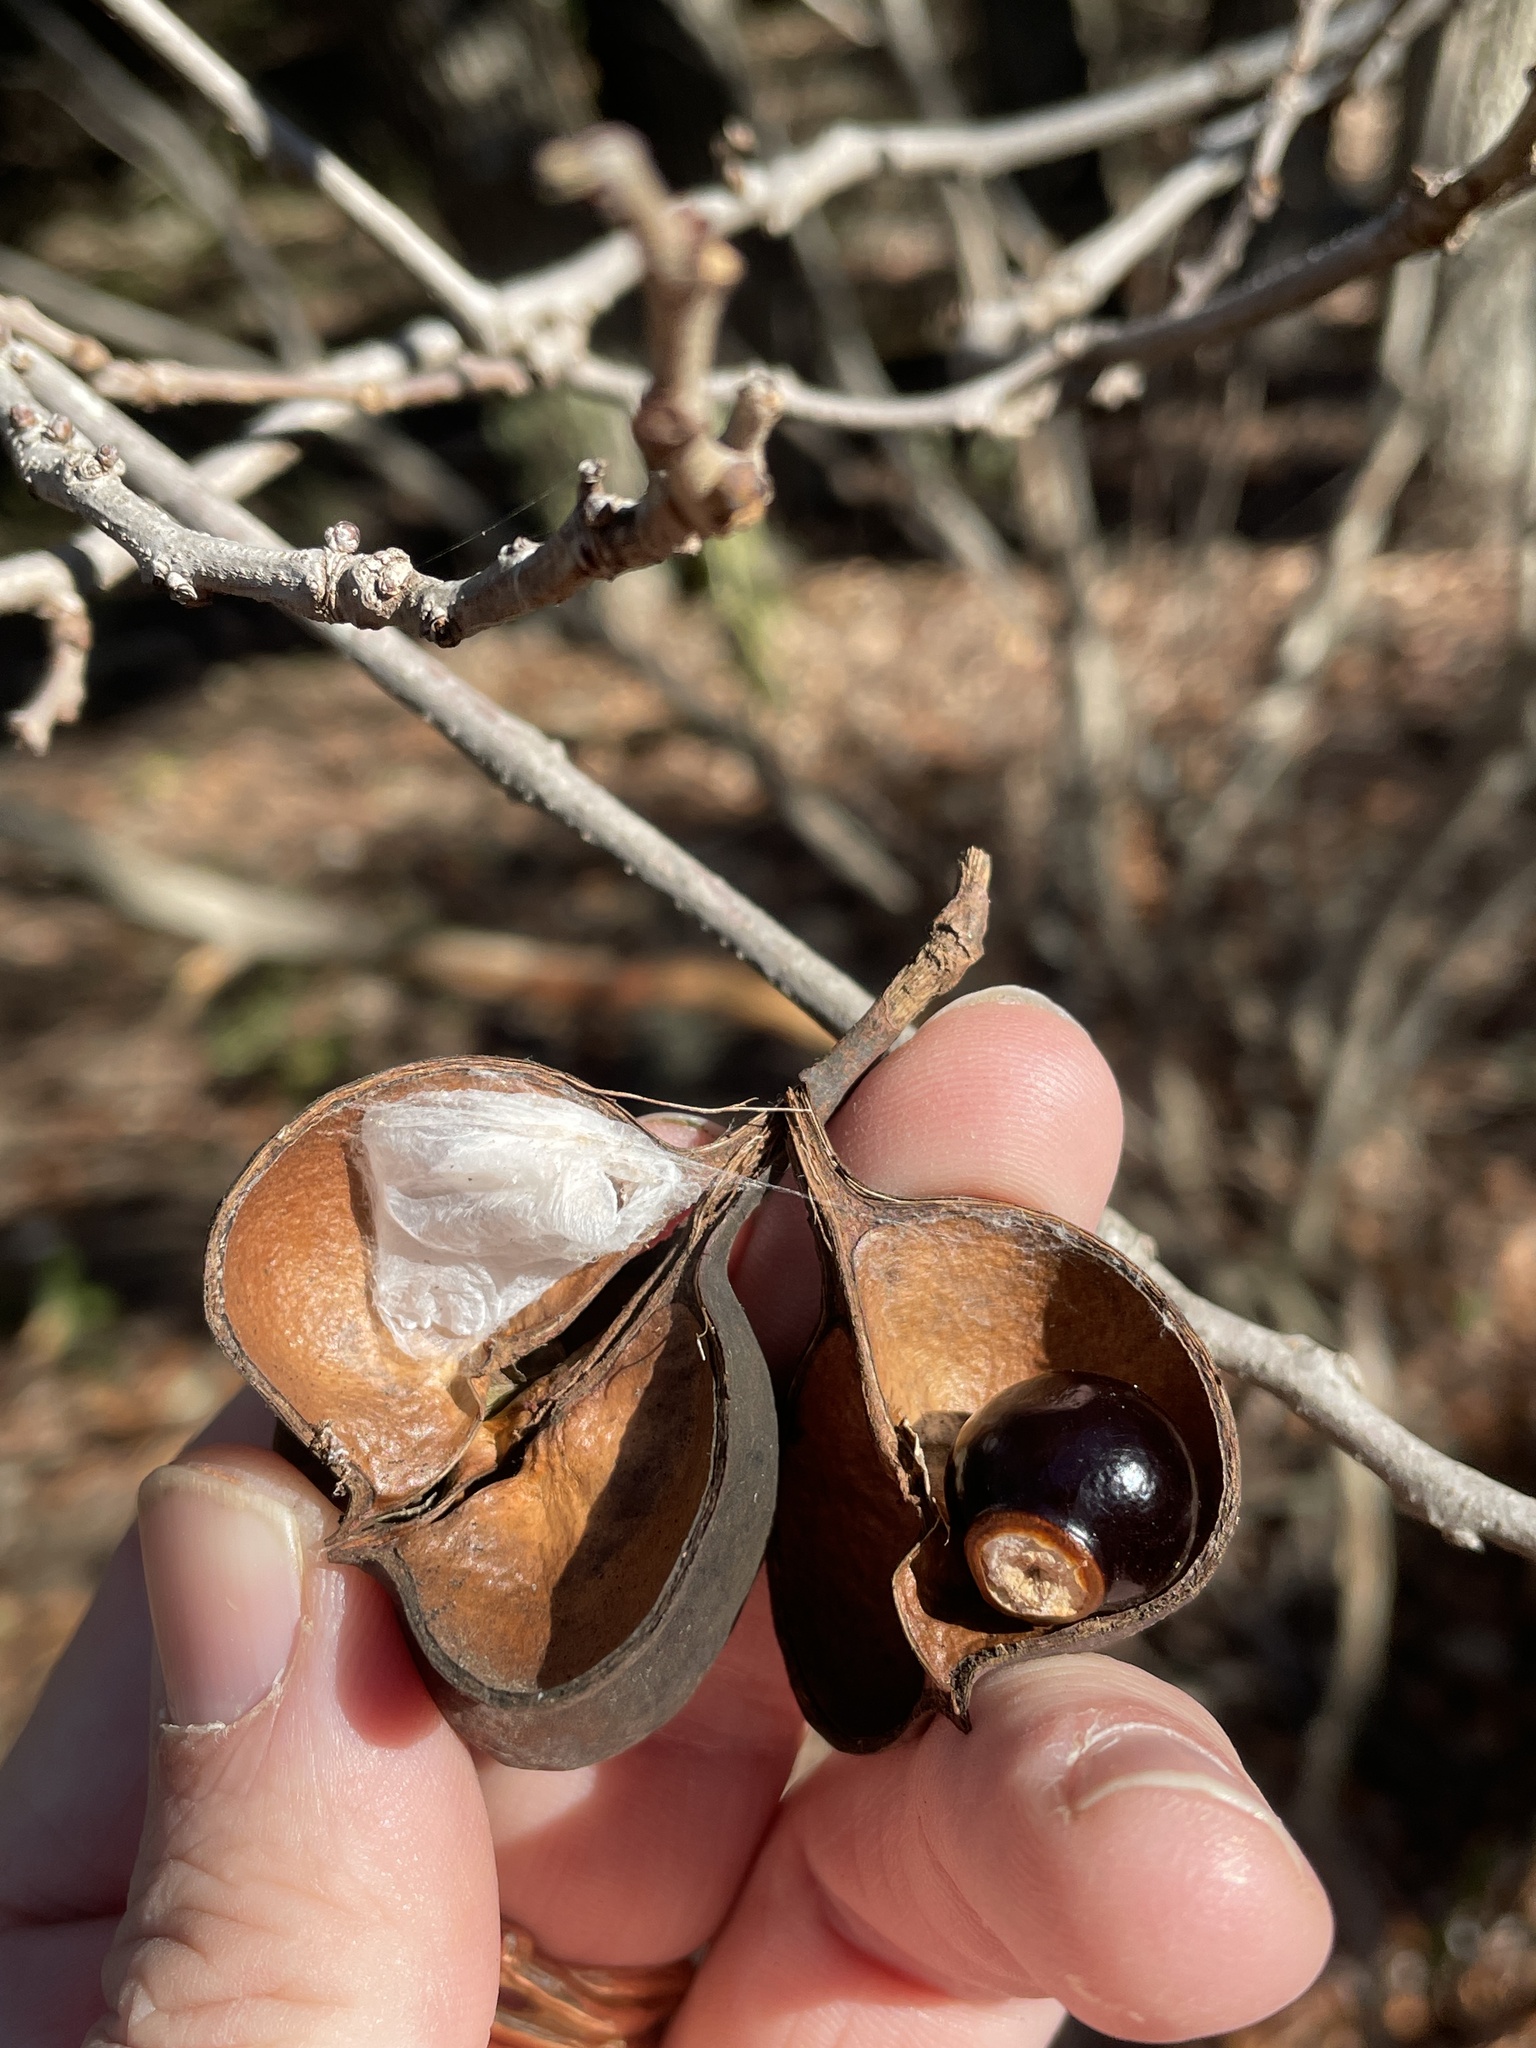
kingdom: Plantae
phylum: Tracheophyta
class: Magnoliopsida
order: Sapindales
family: Sapindaceae
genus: Ungnadia
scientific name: Ungnadia speciosa
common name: Texas-buckeye
